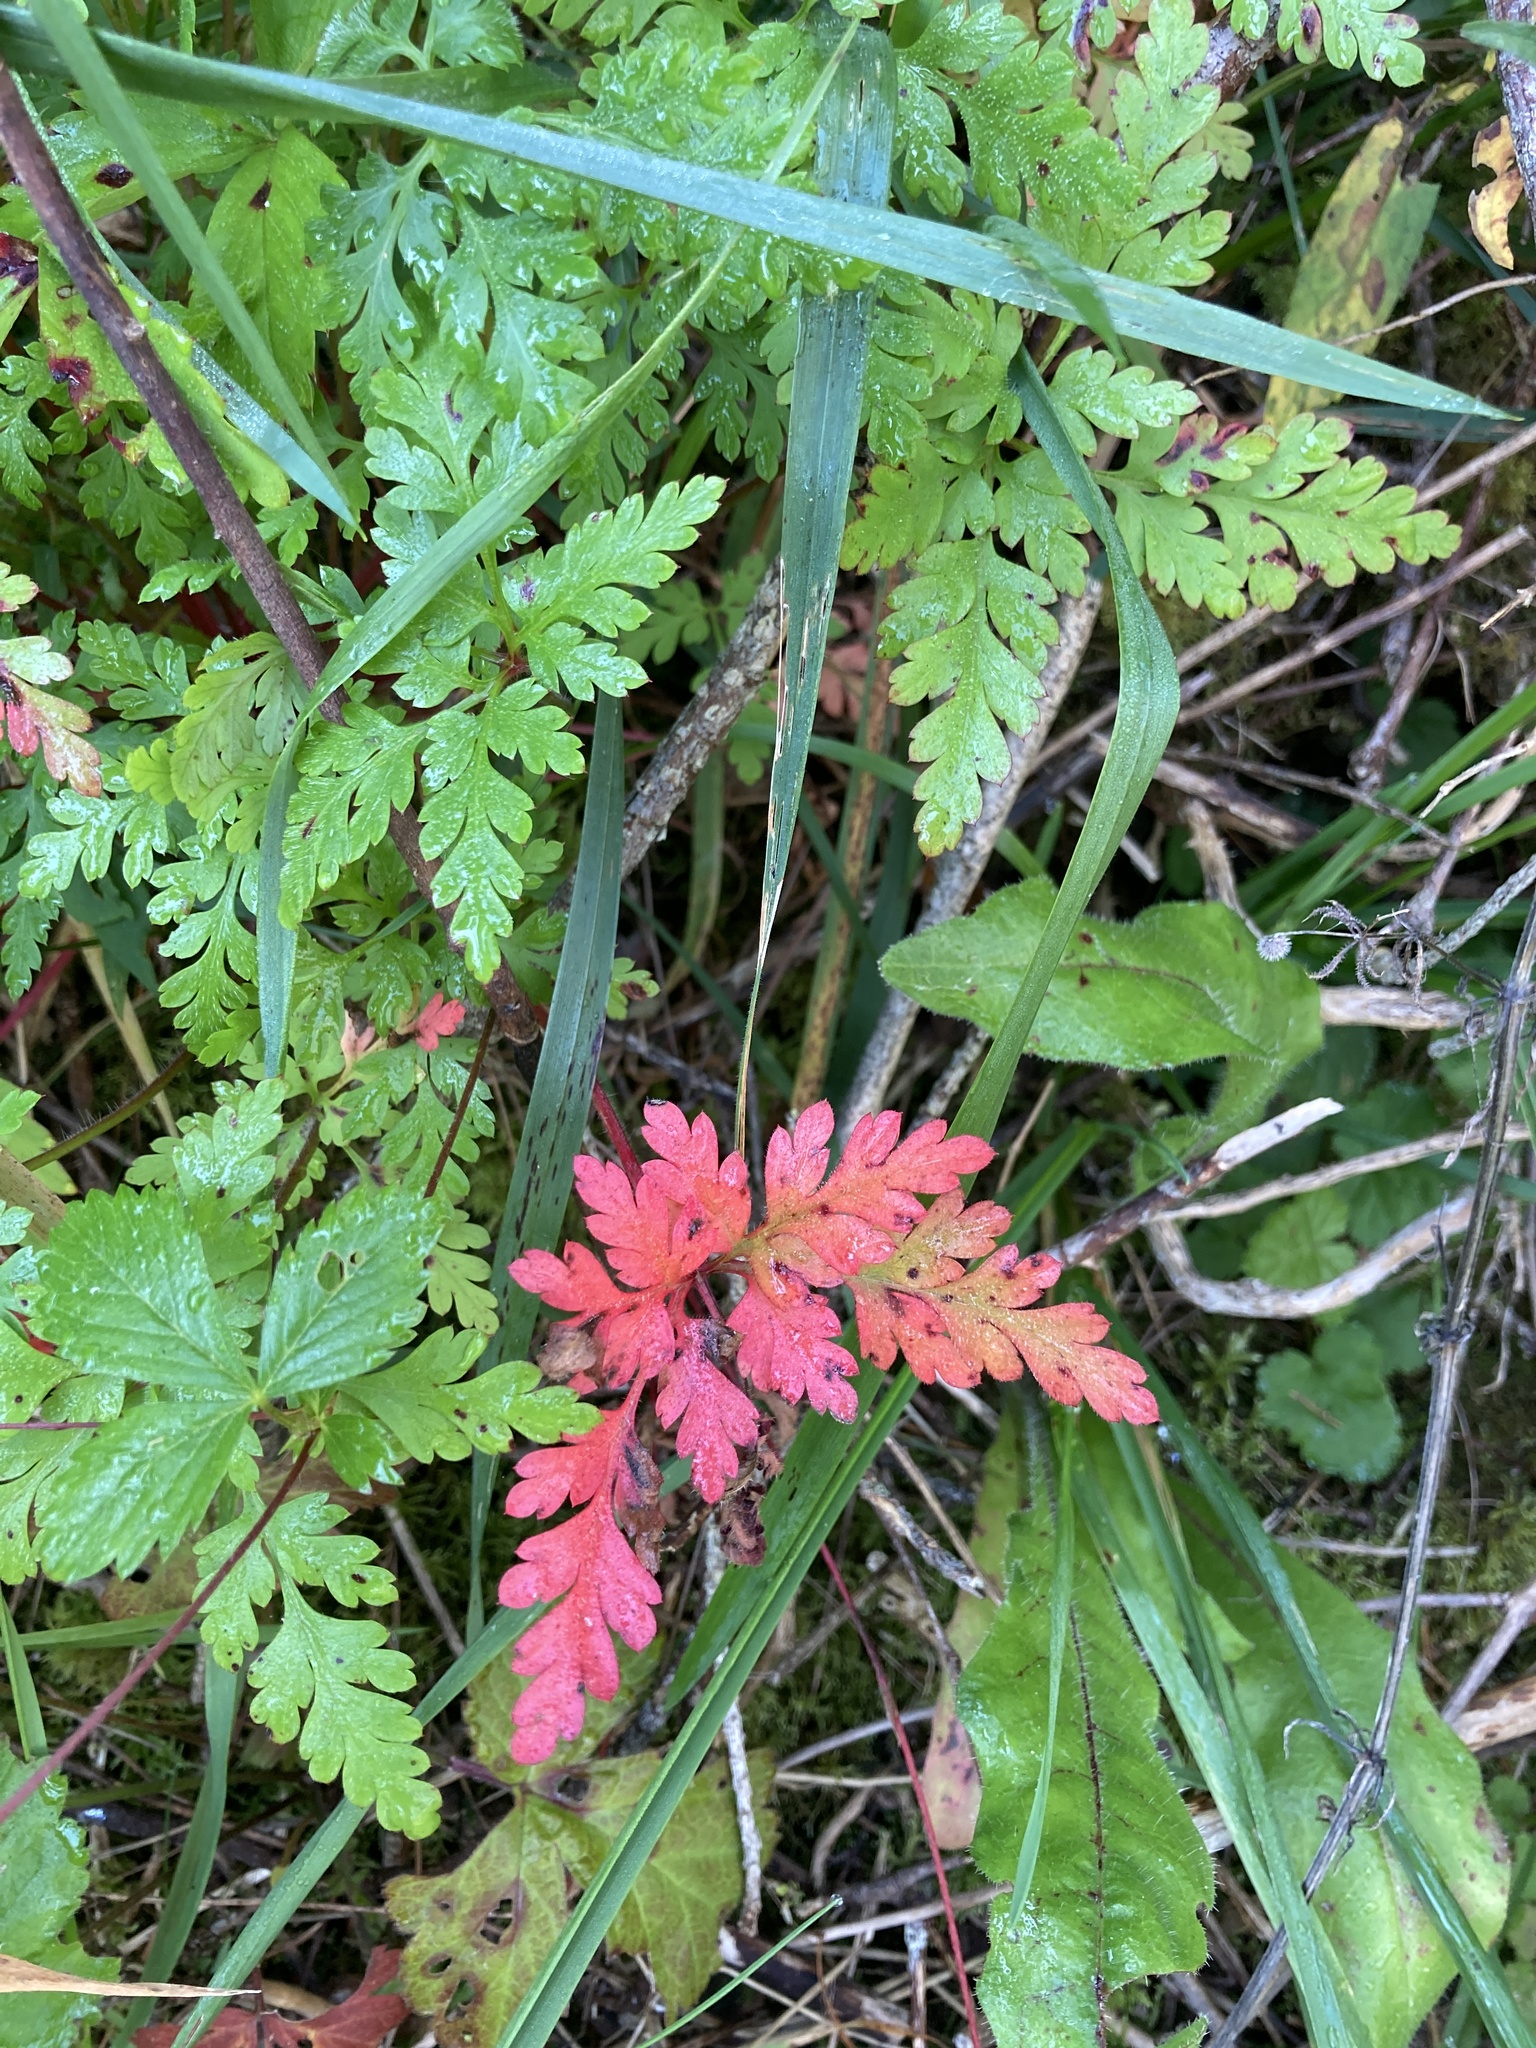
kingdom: Plantae
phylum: Tracheophyta
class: Magnoliopsida
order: Geraniales
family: Geraniaceae
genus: Geranium
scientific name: Geranium robertianum
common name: Herb-robert
